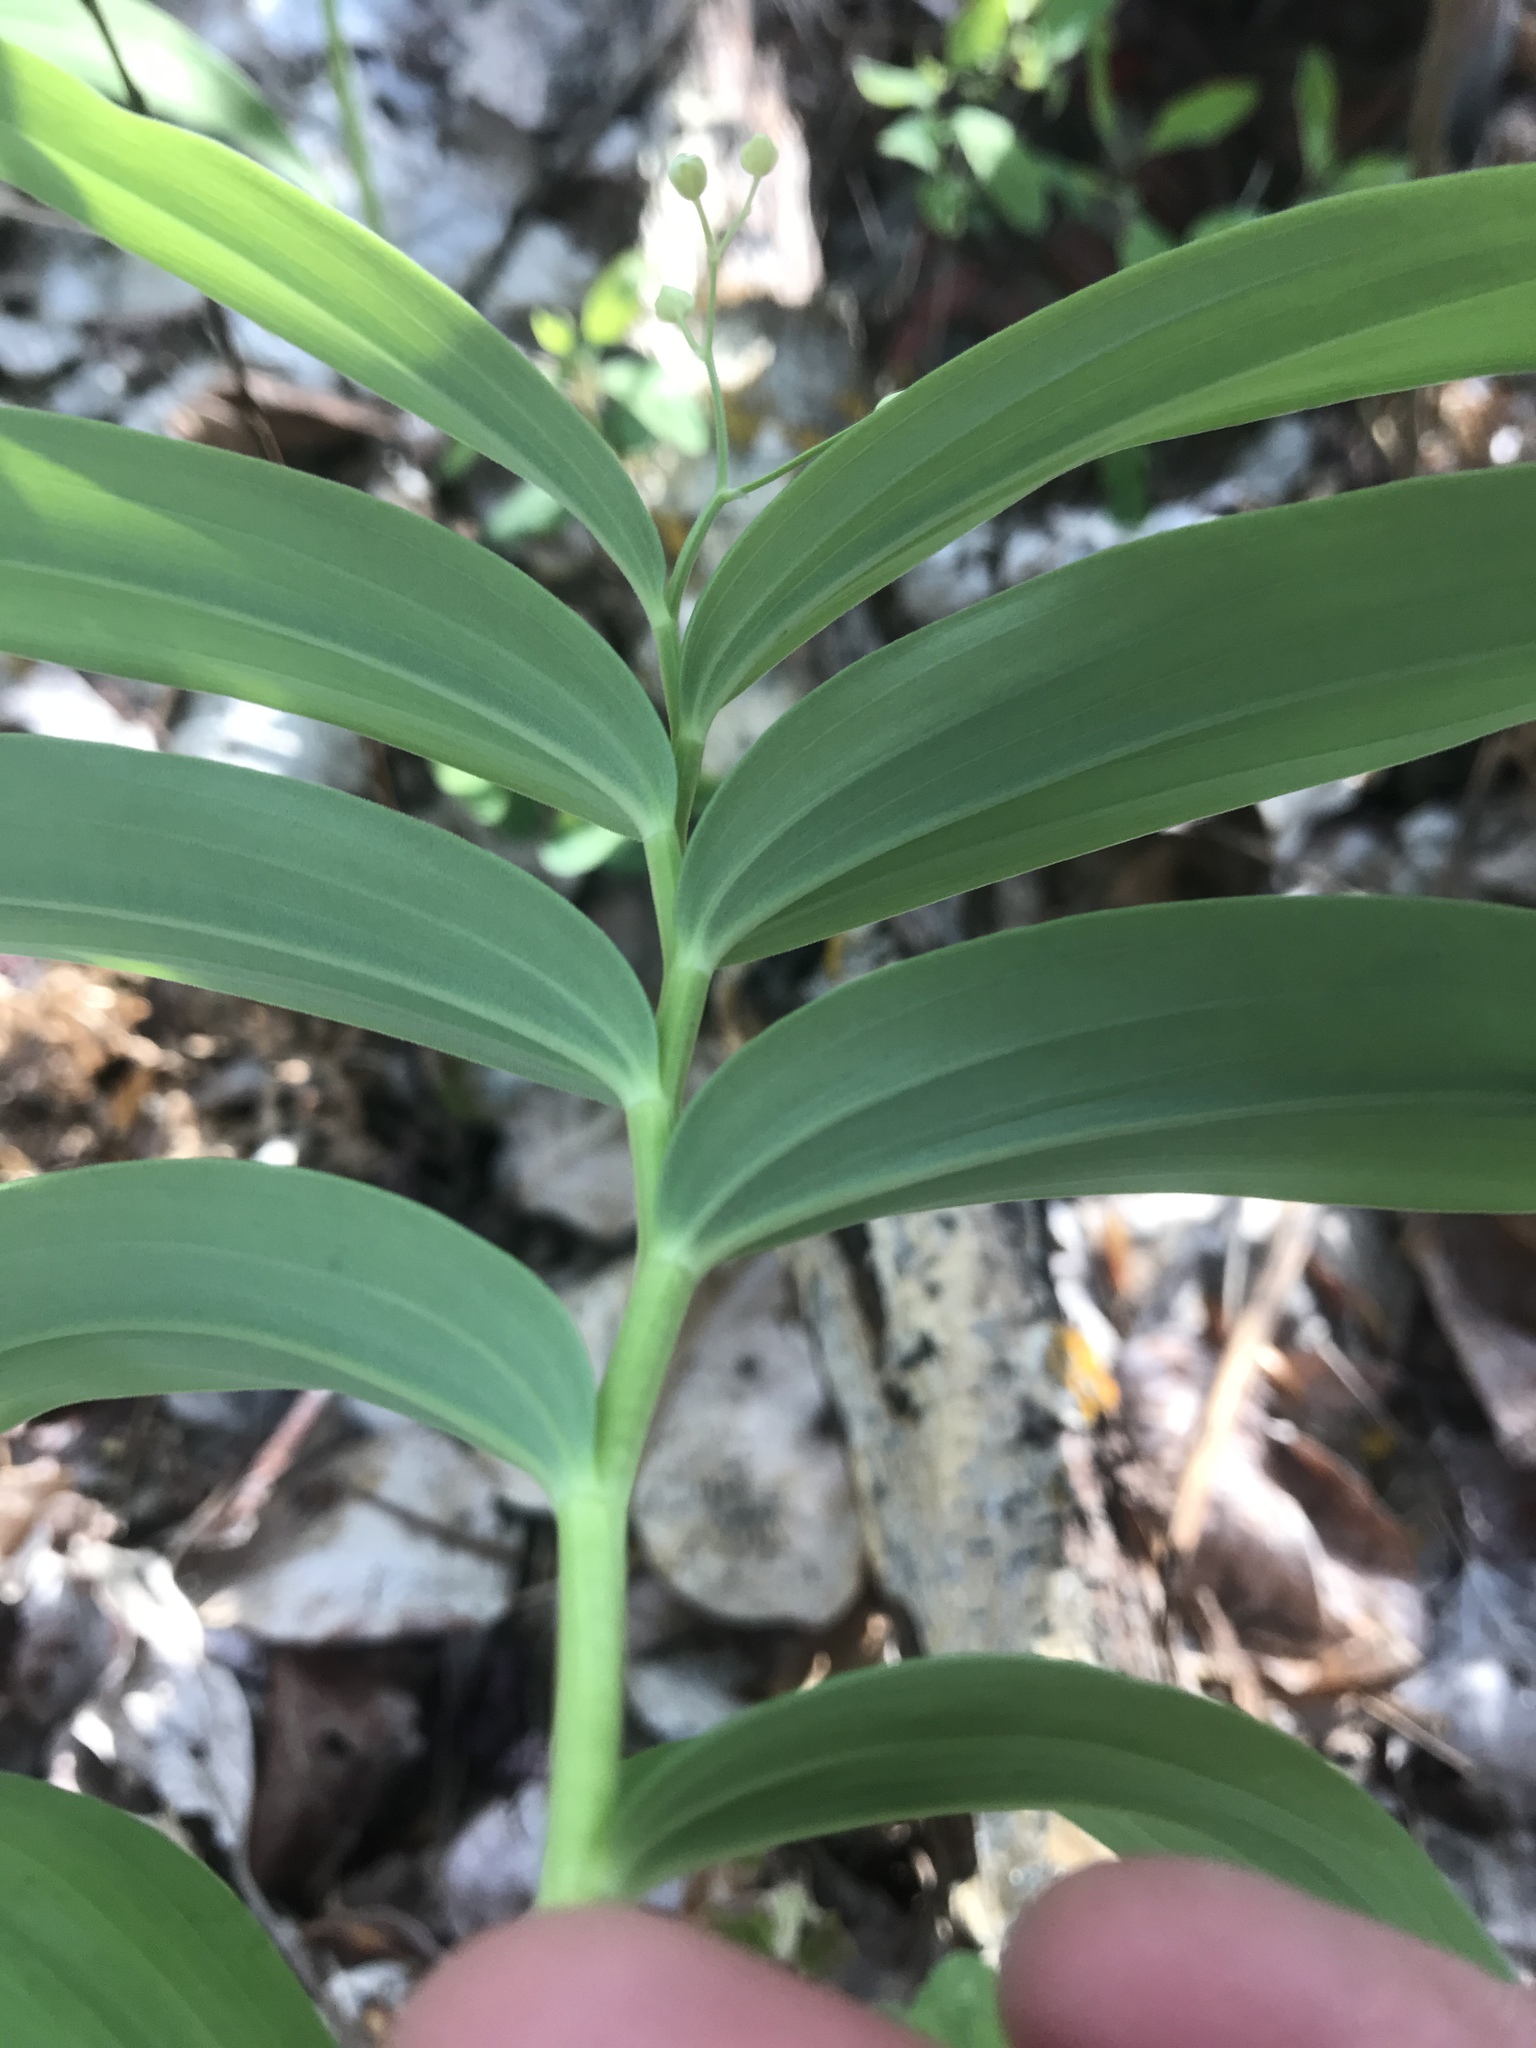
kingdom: Plantae
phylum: Tracheophyta
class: Liliopsida
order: Asparagales
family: Asparagaceae
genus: Maianthemum
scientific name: Maianthemum stellatum
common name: Little false solomon's seal
